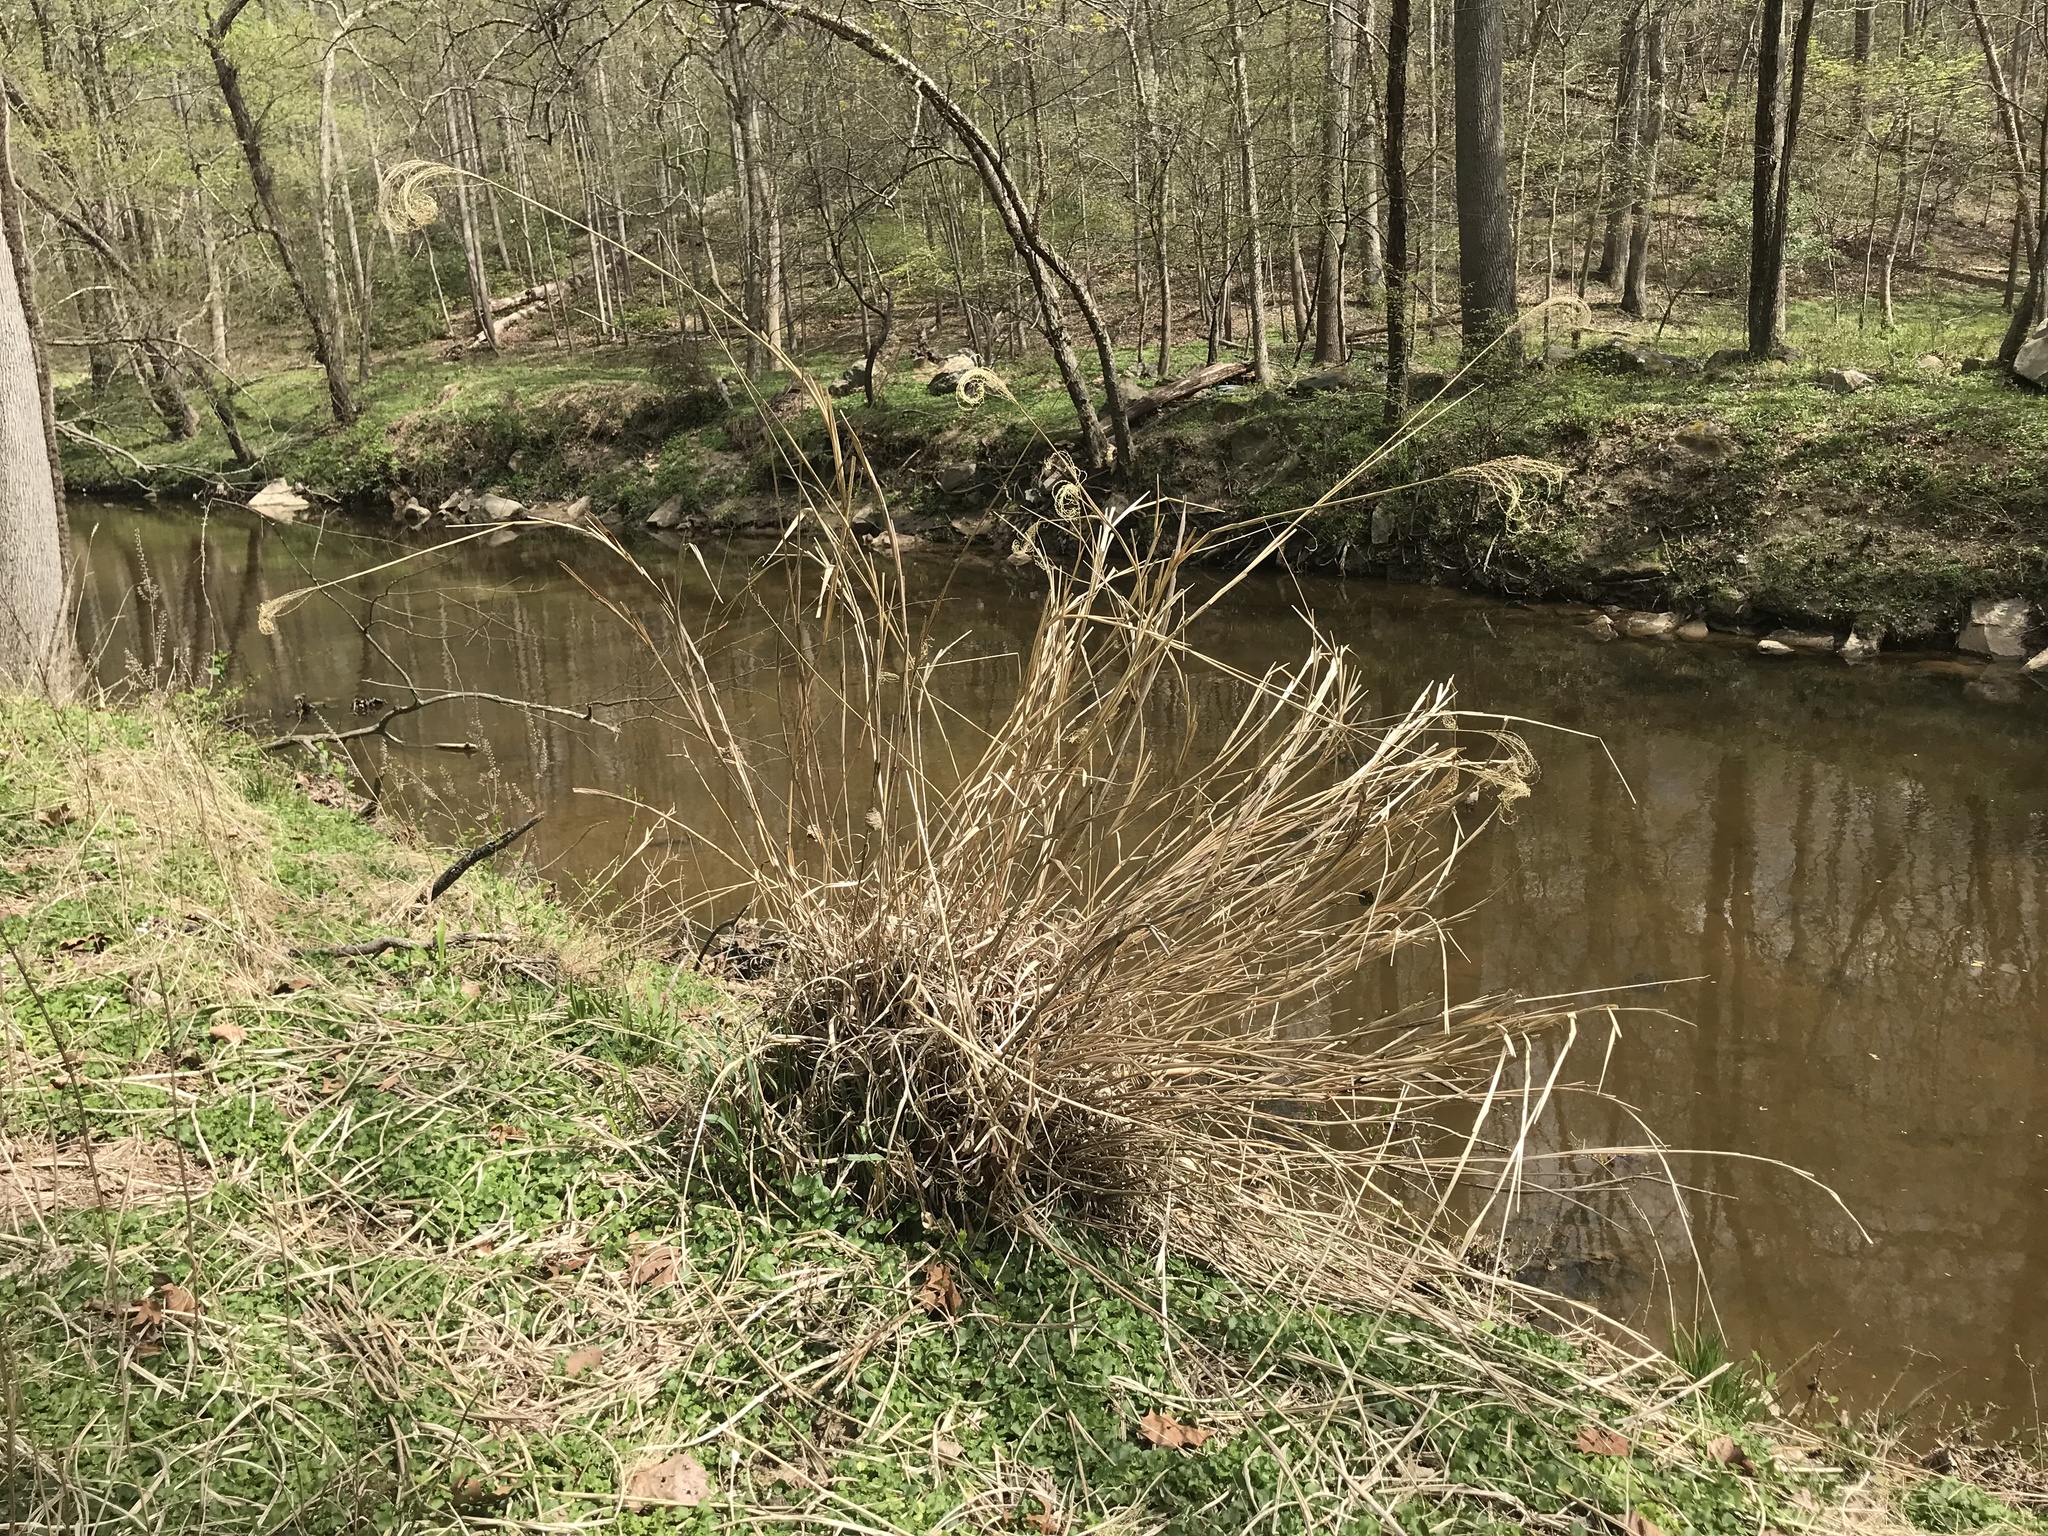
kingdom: Plantae
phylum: Tracheophyta
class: Liliopsida
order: Poales
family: Poaceae
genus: Miscanthus
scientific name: Miscanthus sinensis
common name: Chinese silvergrass
